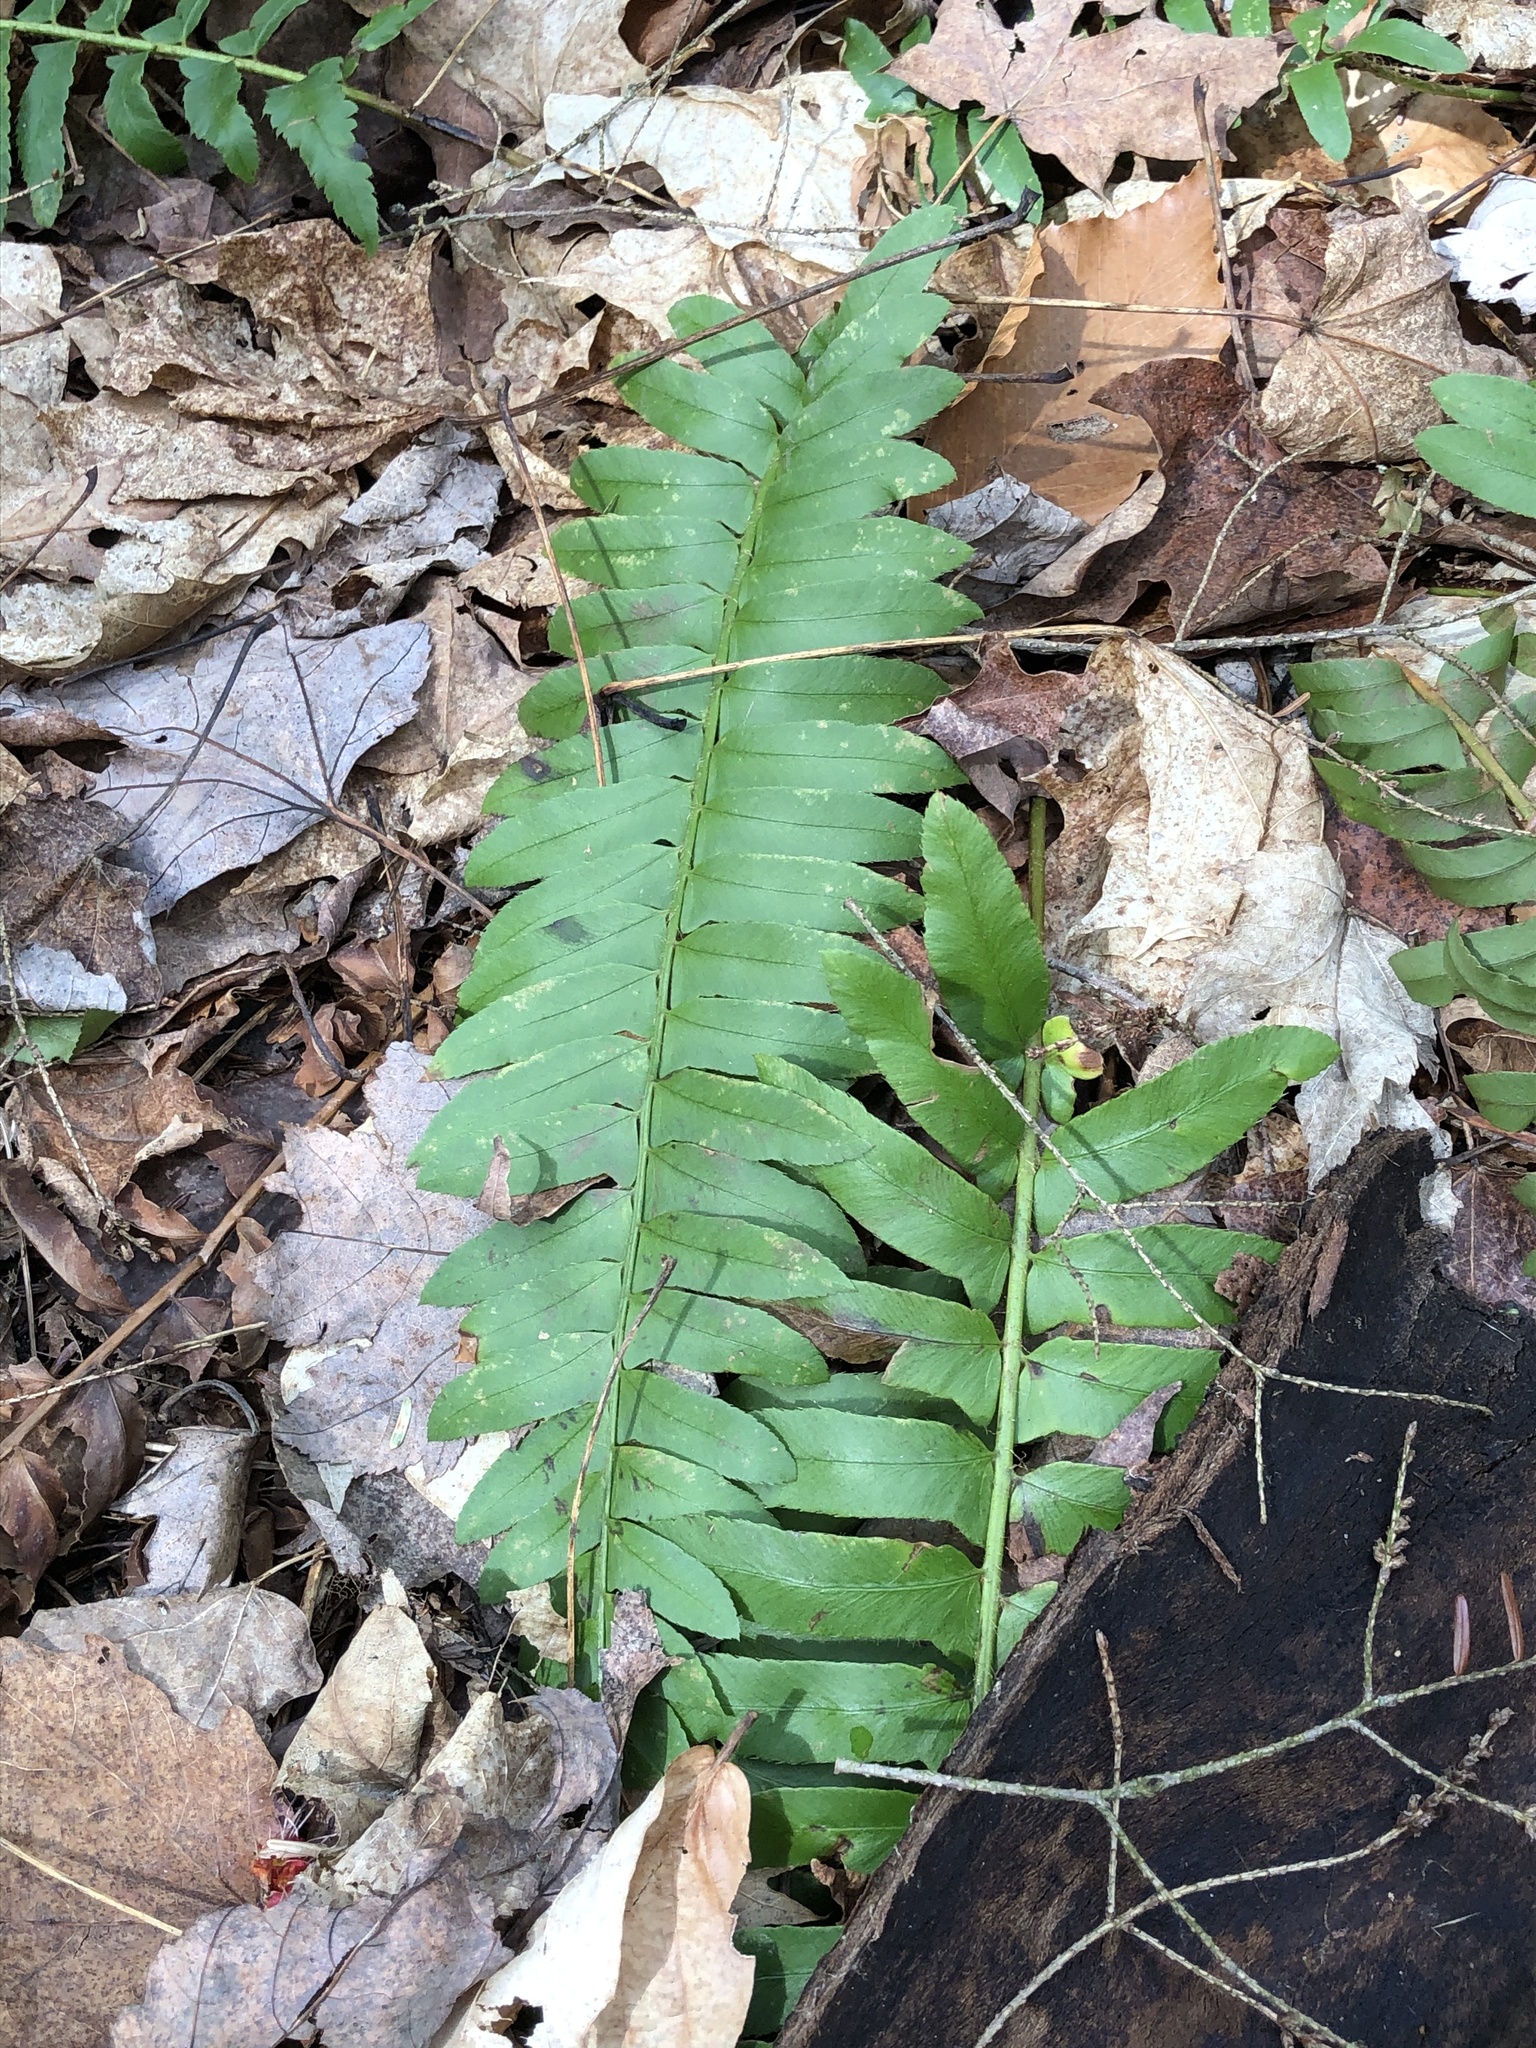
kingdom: Plantae
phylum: Tracheophyta
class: Polypodiopsida
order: Polypodiales
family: Dryopteridaceae
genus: Polystichum
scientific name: Polystichum acrostichoides
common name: Christmas fern
